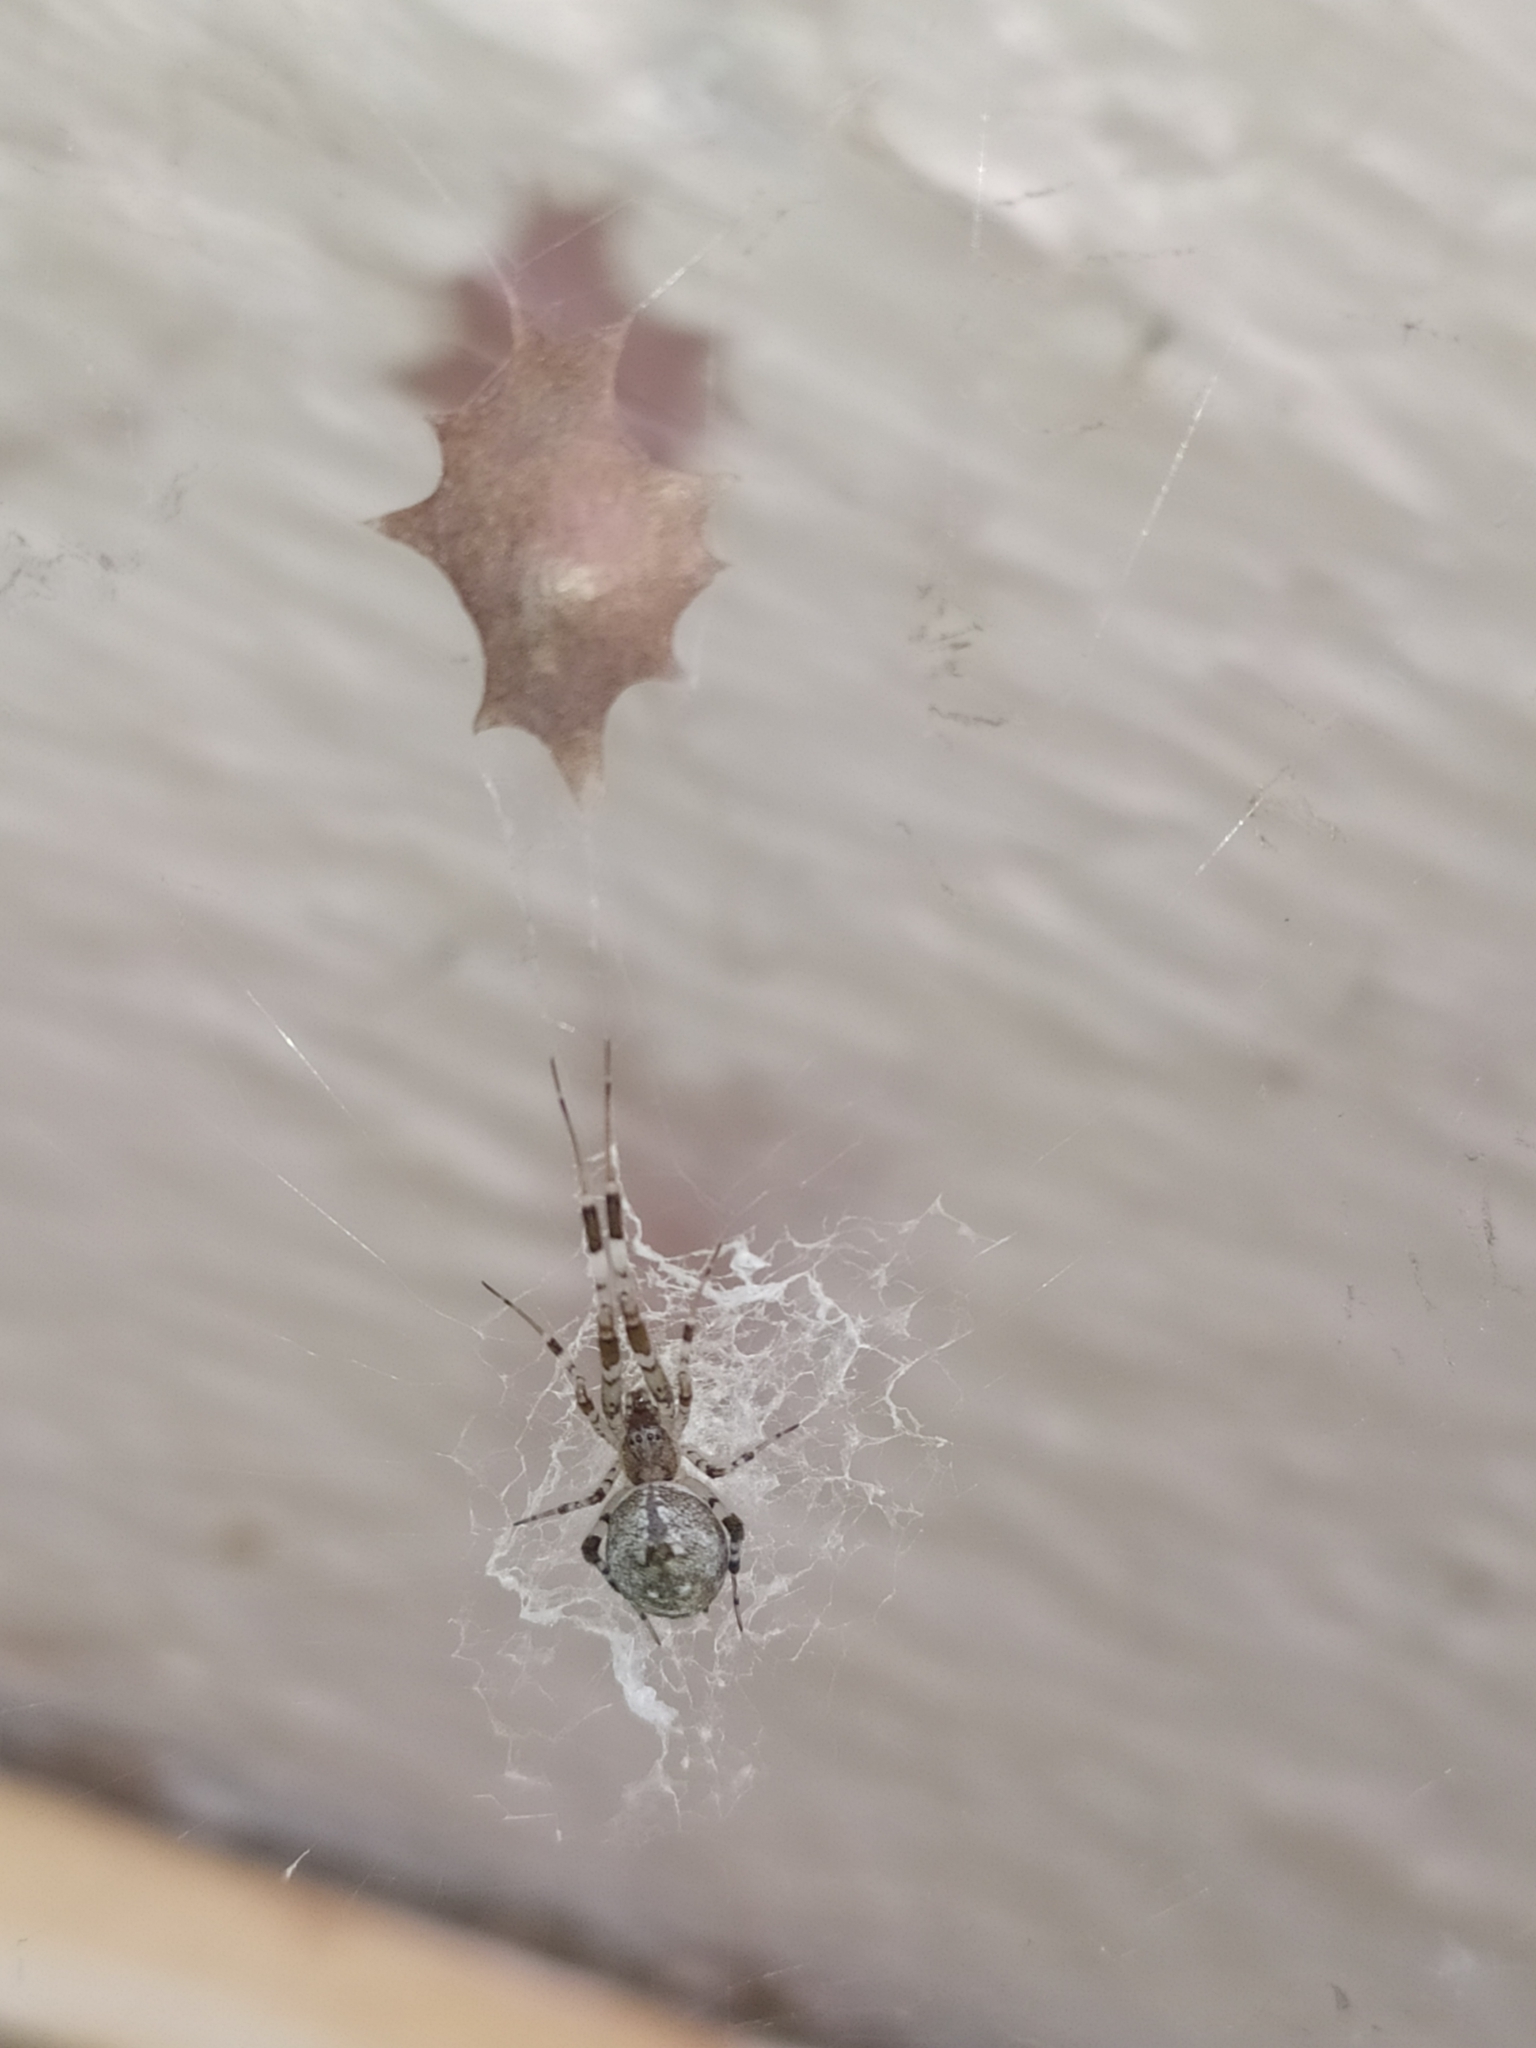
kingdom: Animalia
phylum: Arthropoda
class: Arachnida
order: Araneae
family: Uloboridae
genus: Zosis
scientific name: Zosis geniculata
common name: Hackled orb weavers
